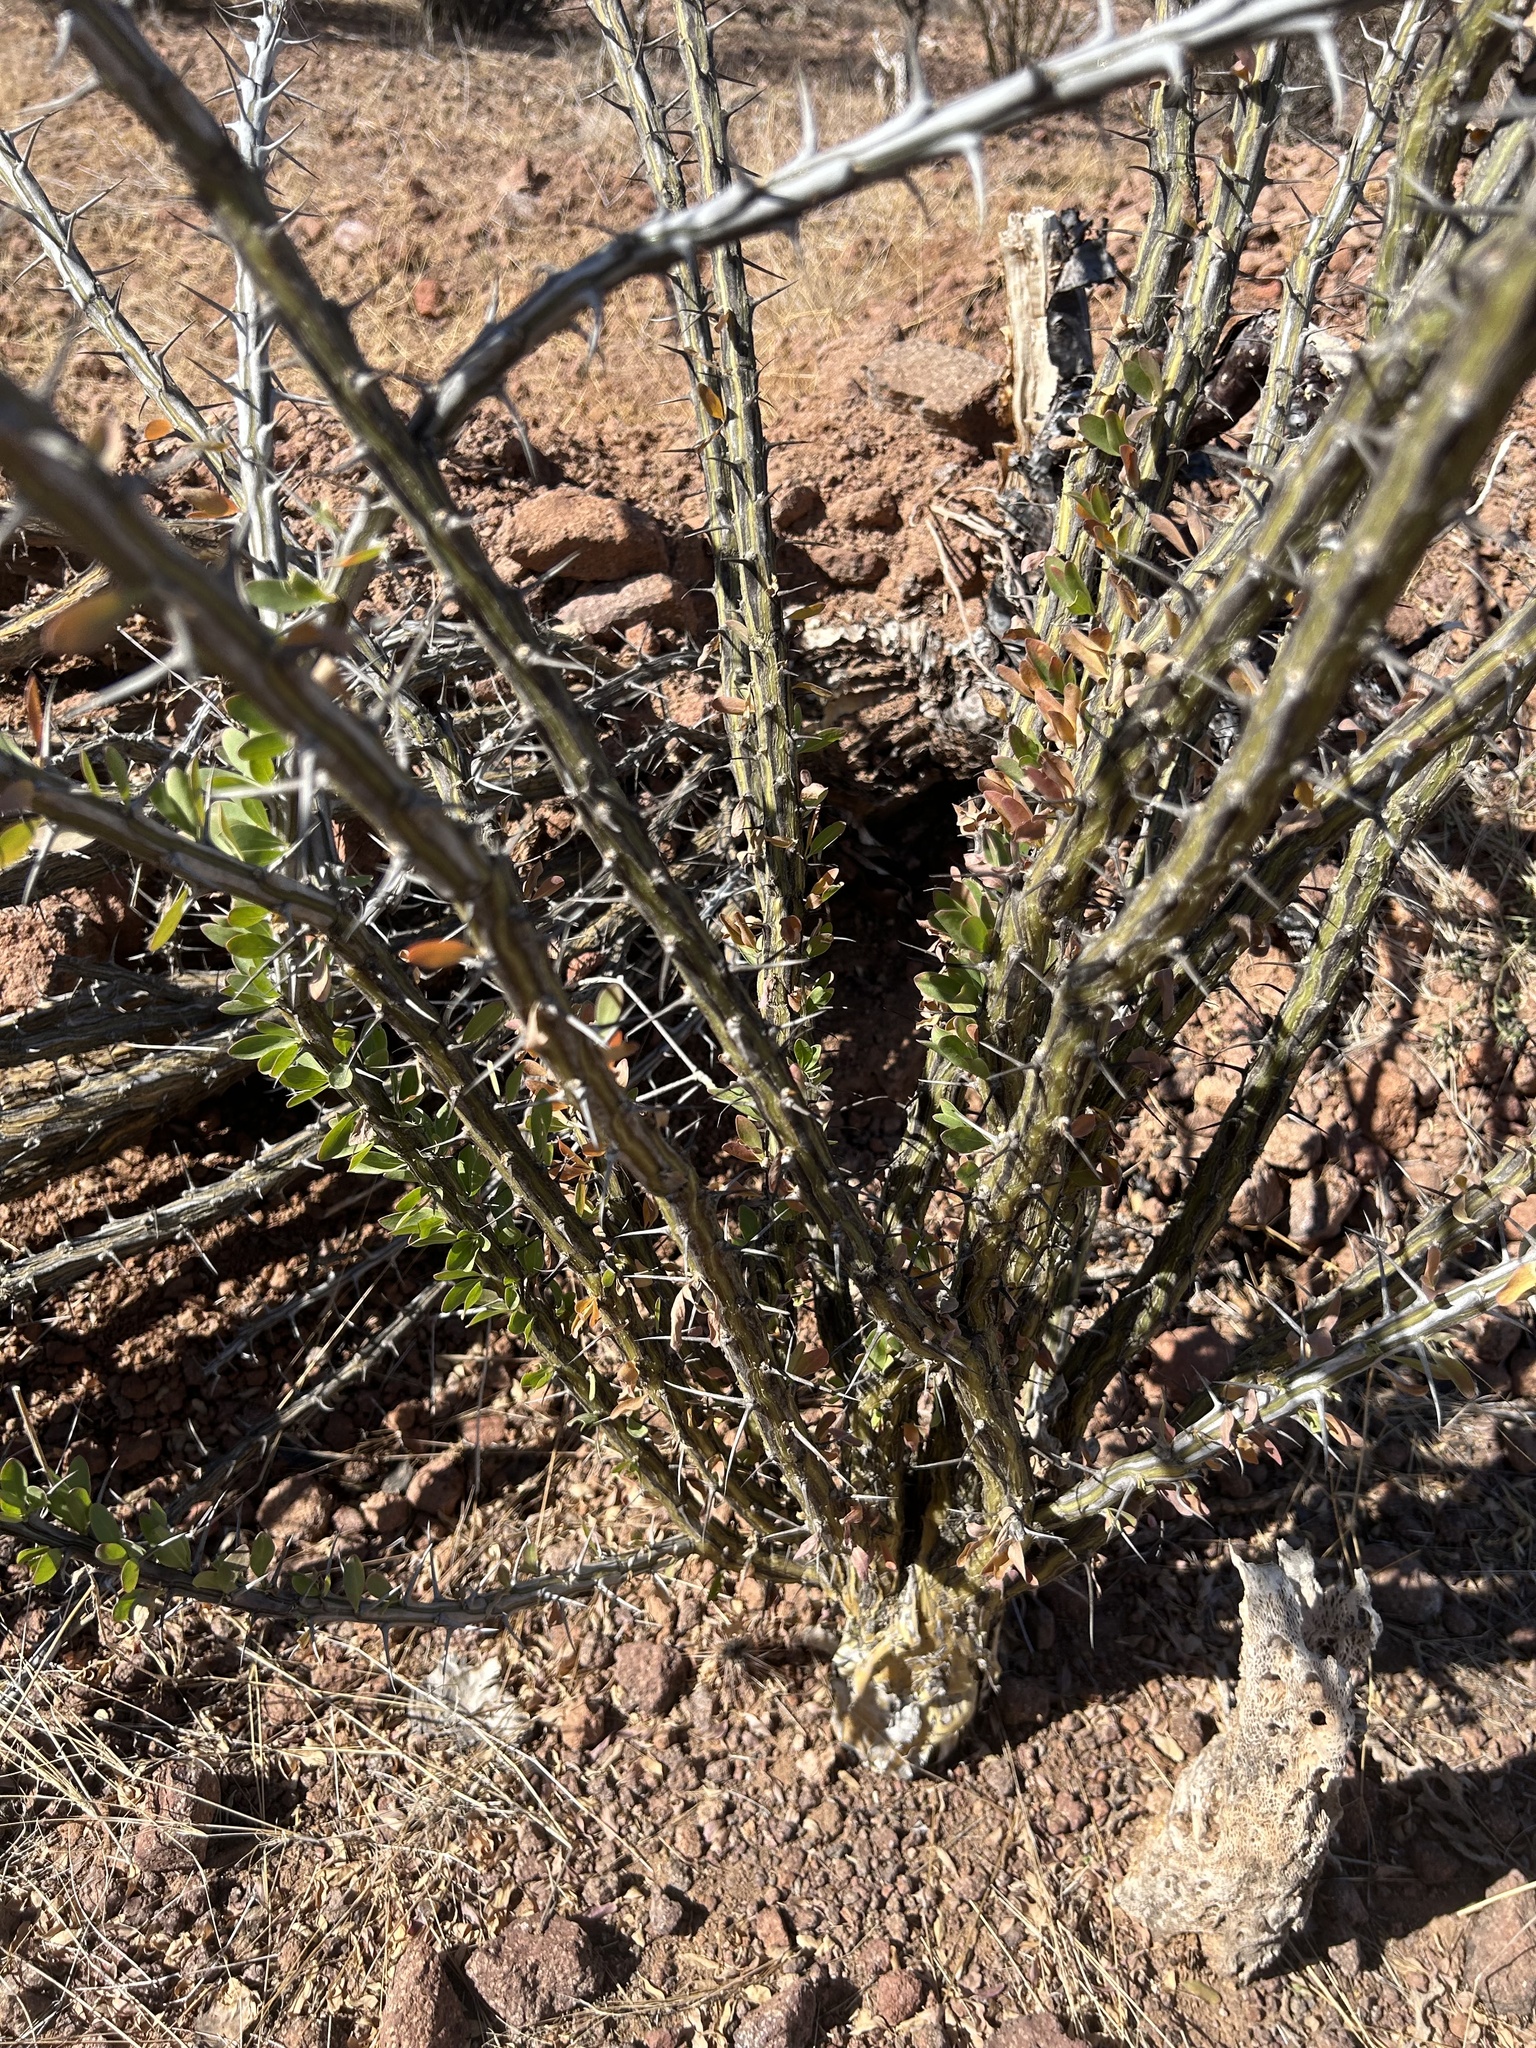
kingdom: Plantae
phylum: Tracheophyta
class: Magnoliopsida
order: Ericales
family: Fouquieriaceae
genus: Fouquieria
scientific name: Fouquieria splendens
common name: Vine-cactus
